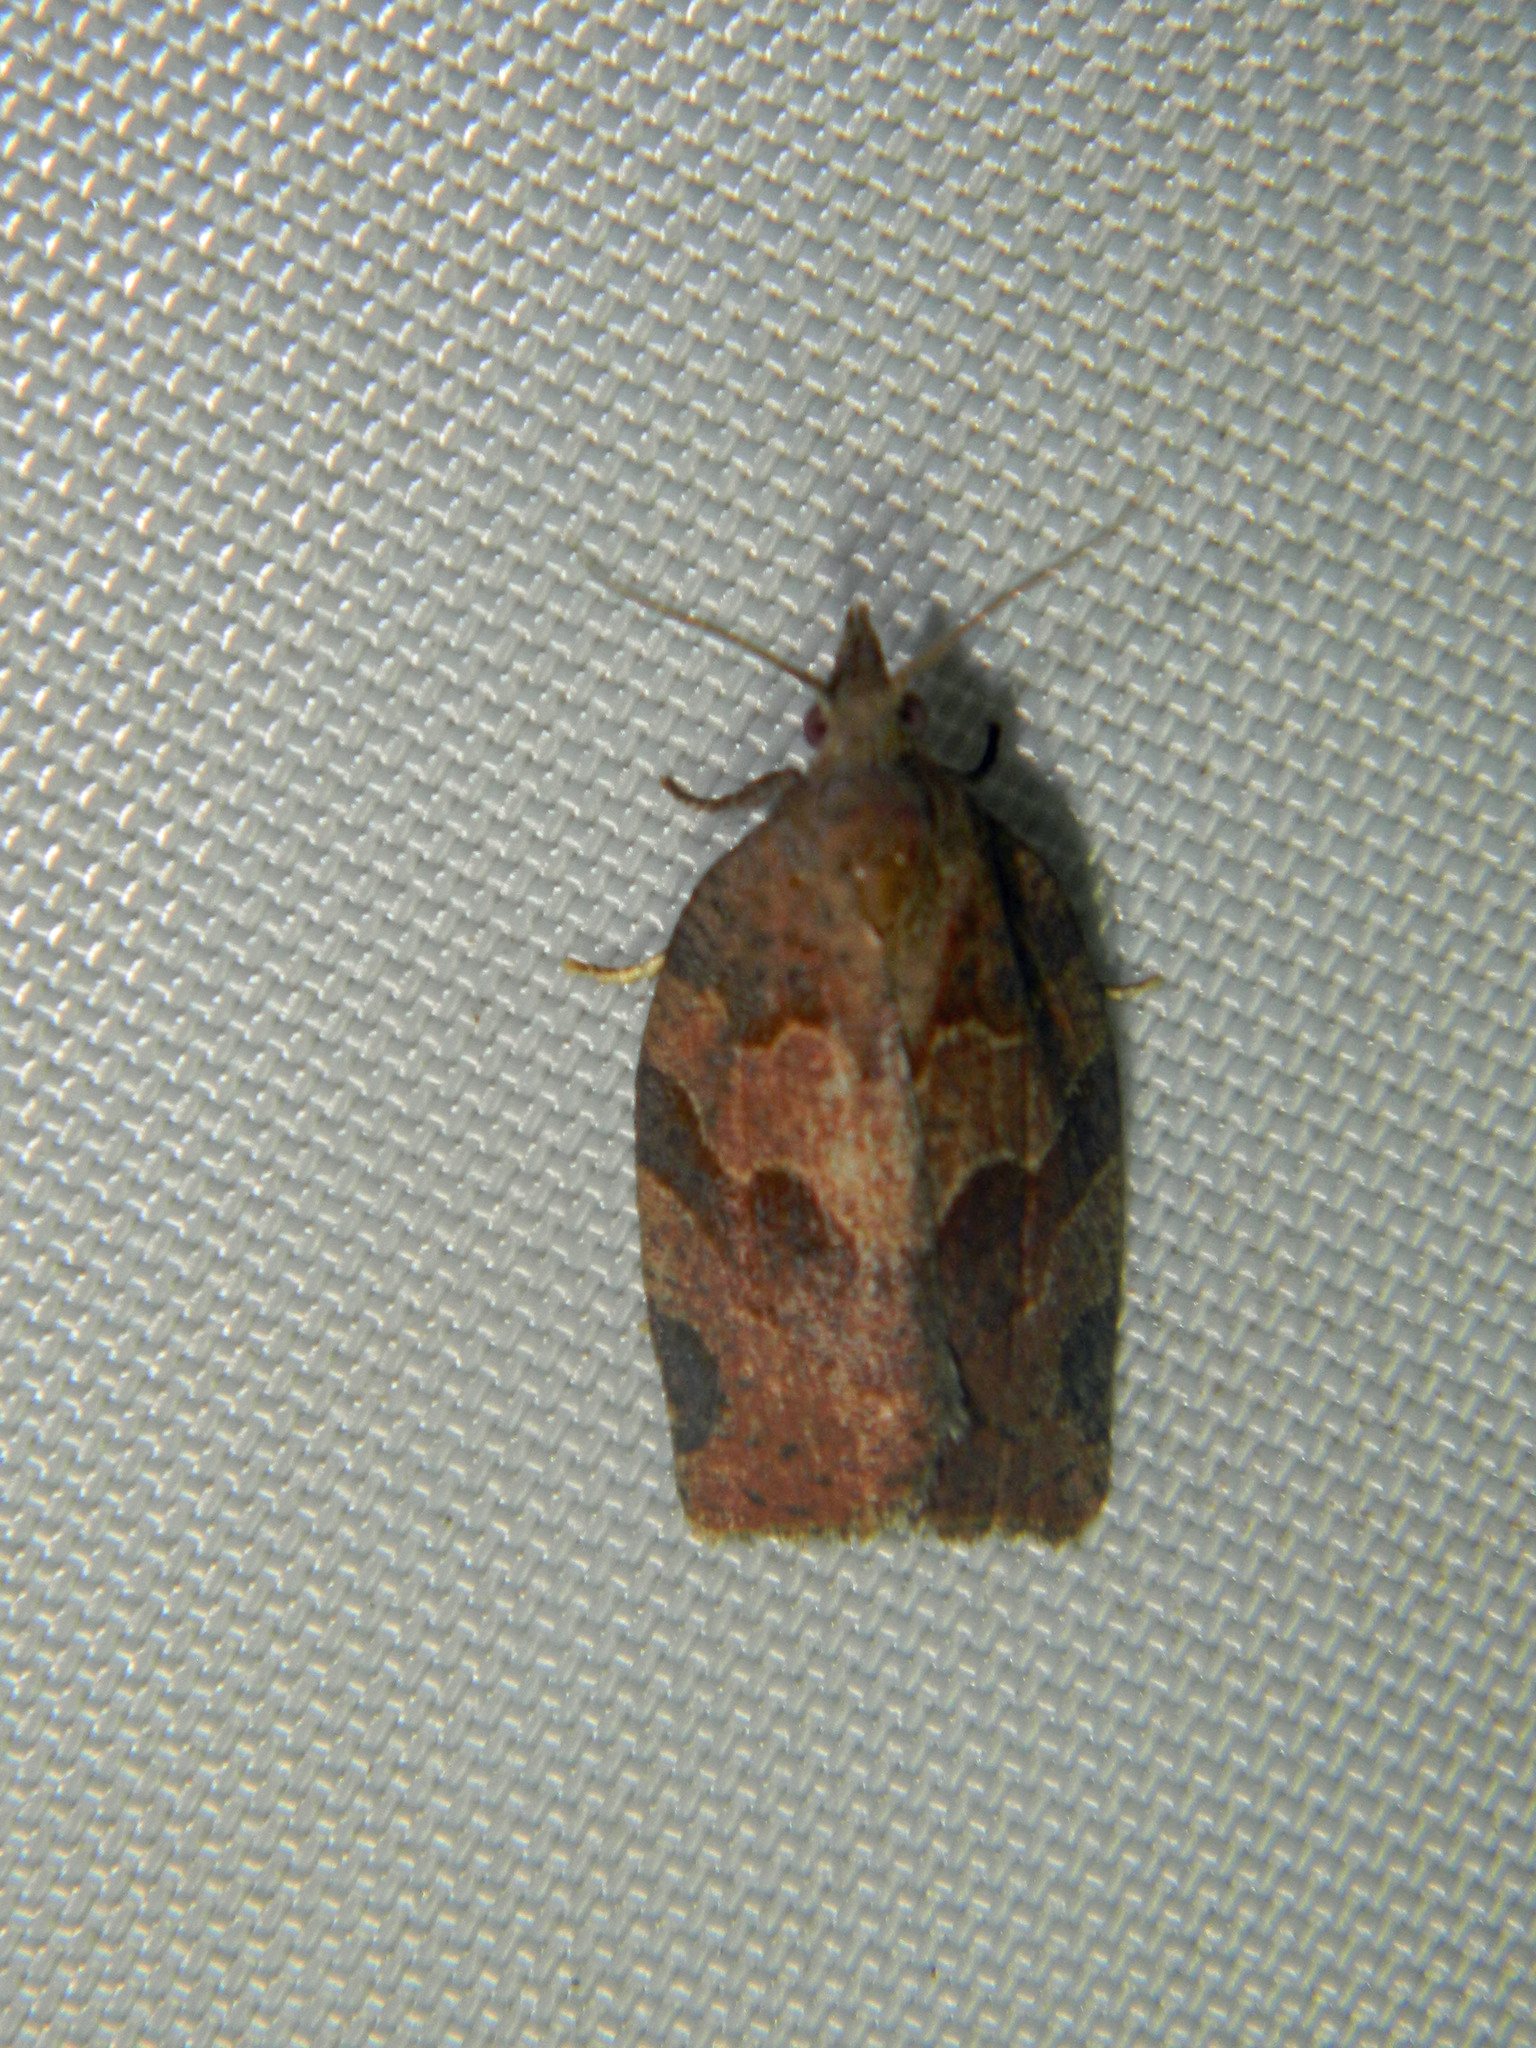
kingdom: Animalia
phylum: Arthropoda
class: Insecta
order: Lepidoptera
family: Tortricidae
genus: Pandemis
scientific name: Pandemis canadana
